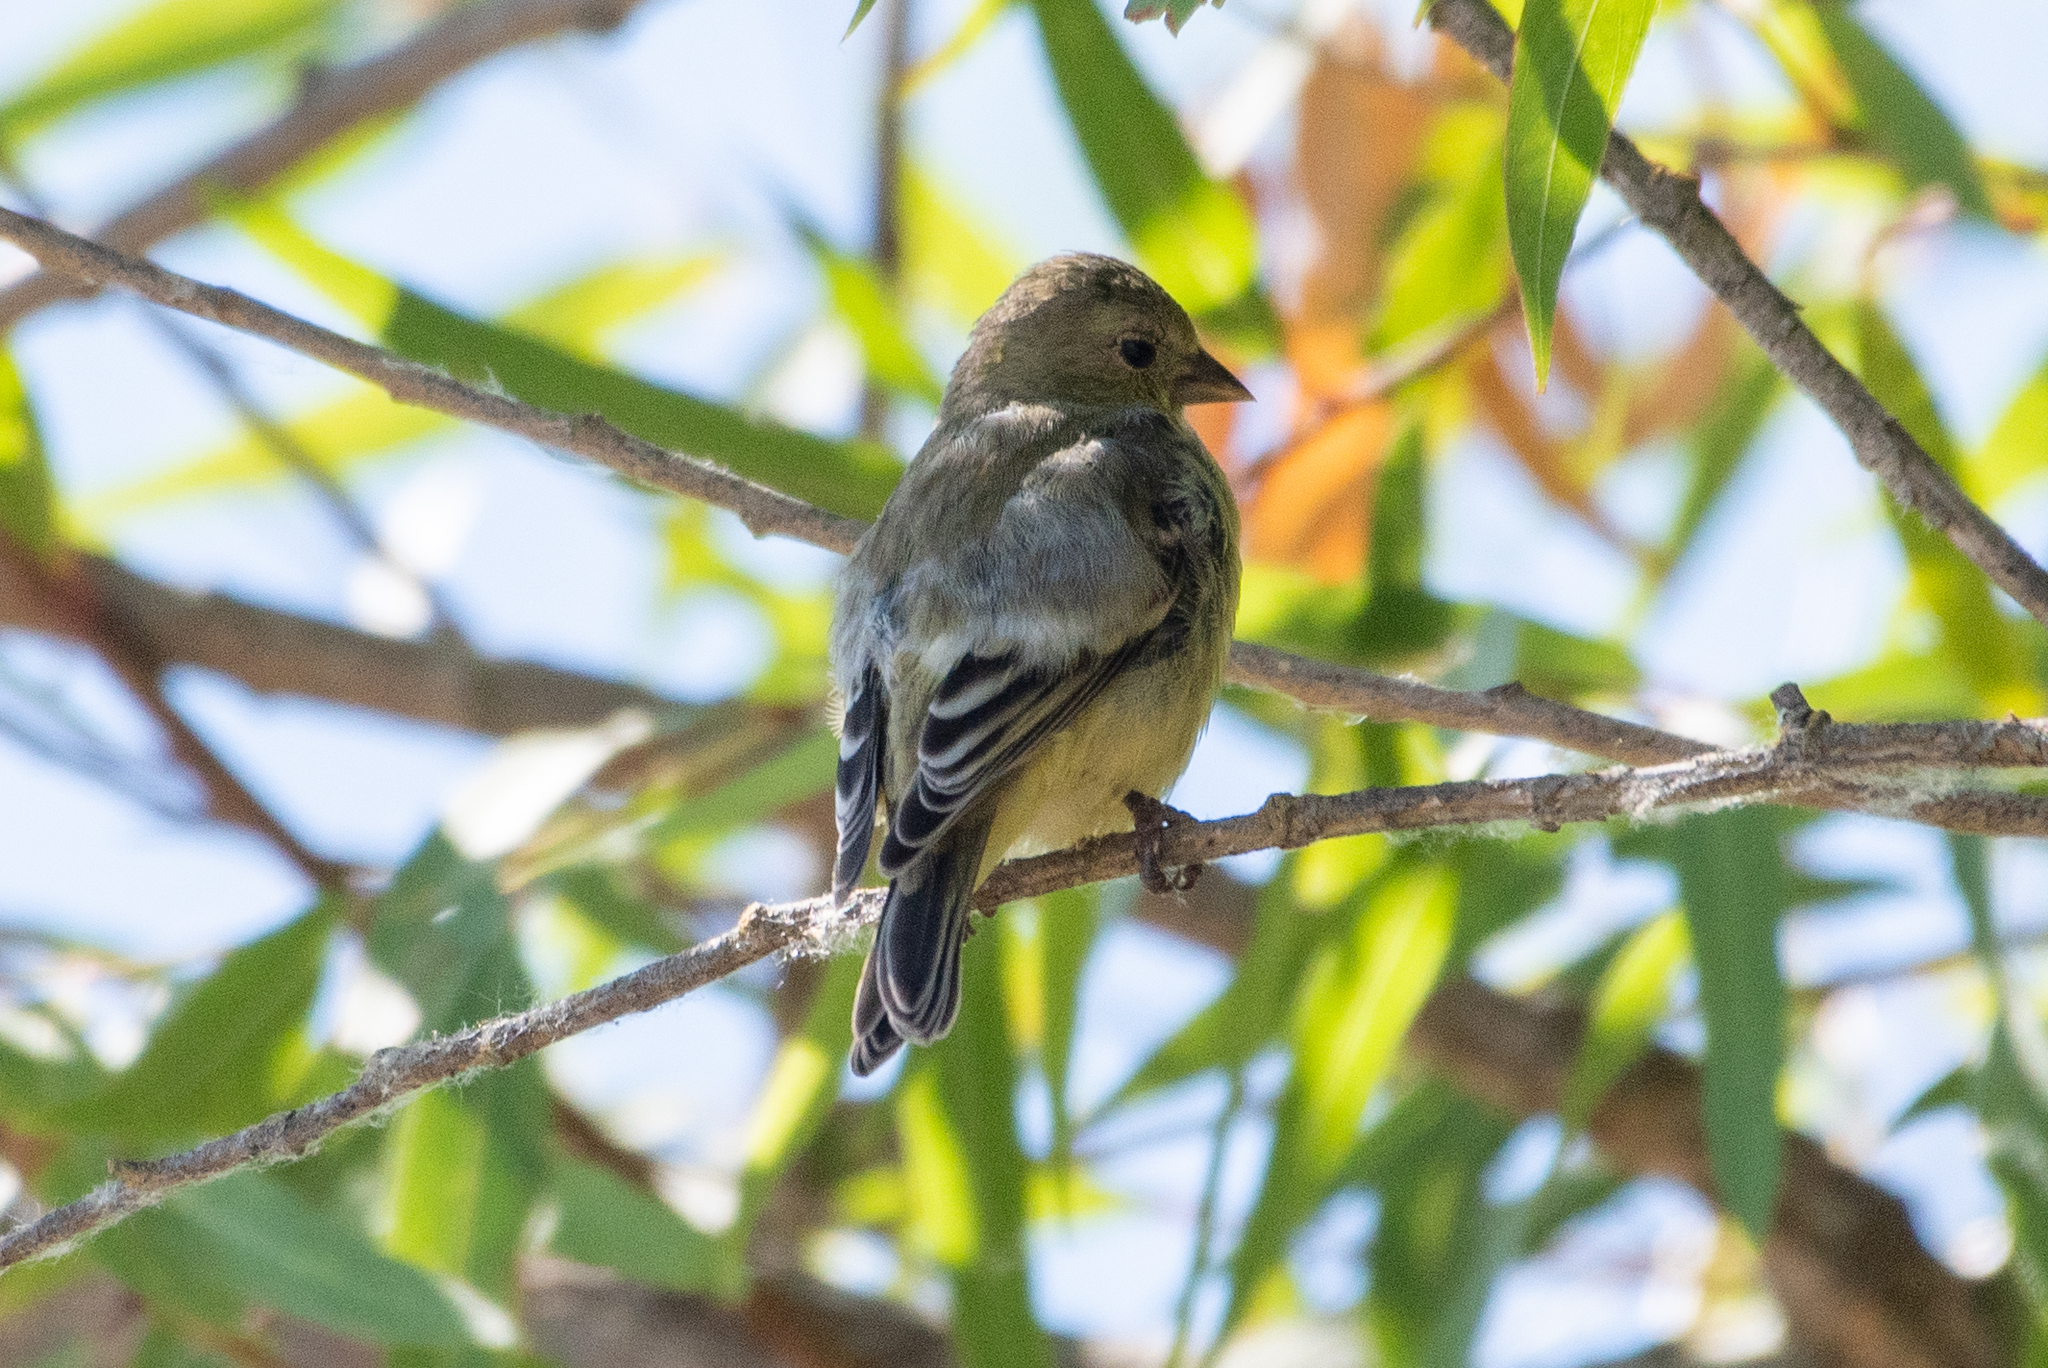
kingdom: Animalia
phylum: Chordata
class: Aves
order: Passeriformes
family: Fringillidae
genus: Spinus
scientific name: Spinus psaltria
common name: Lesser goldfinch
